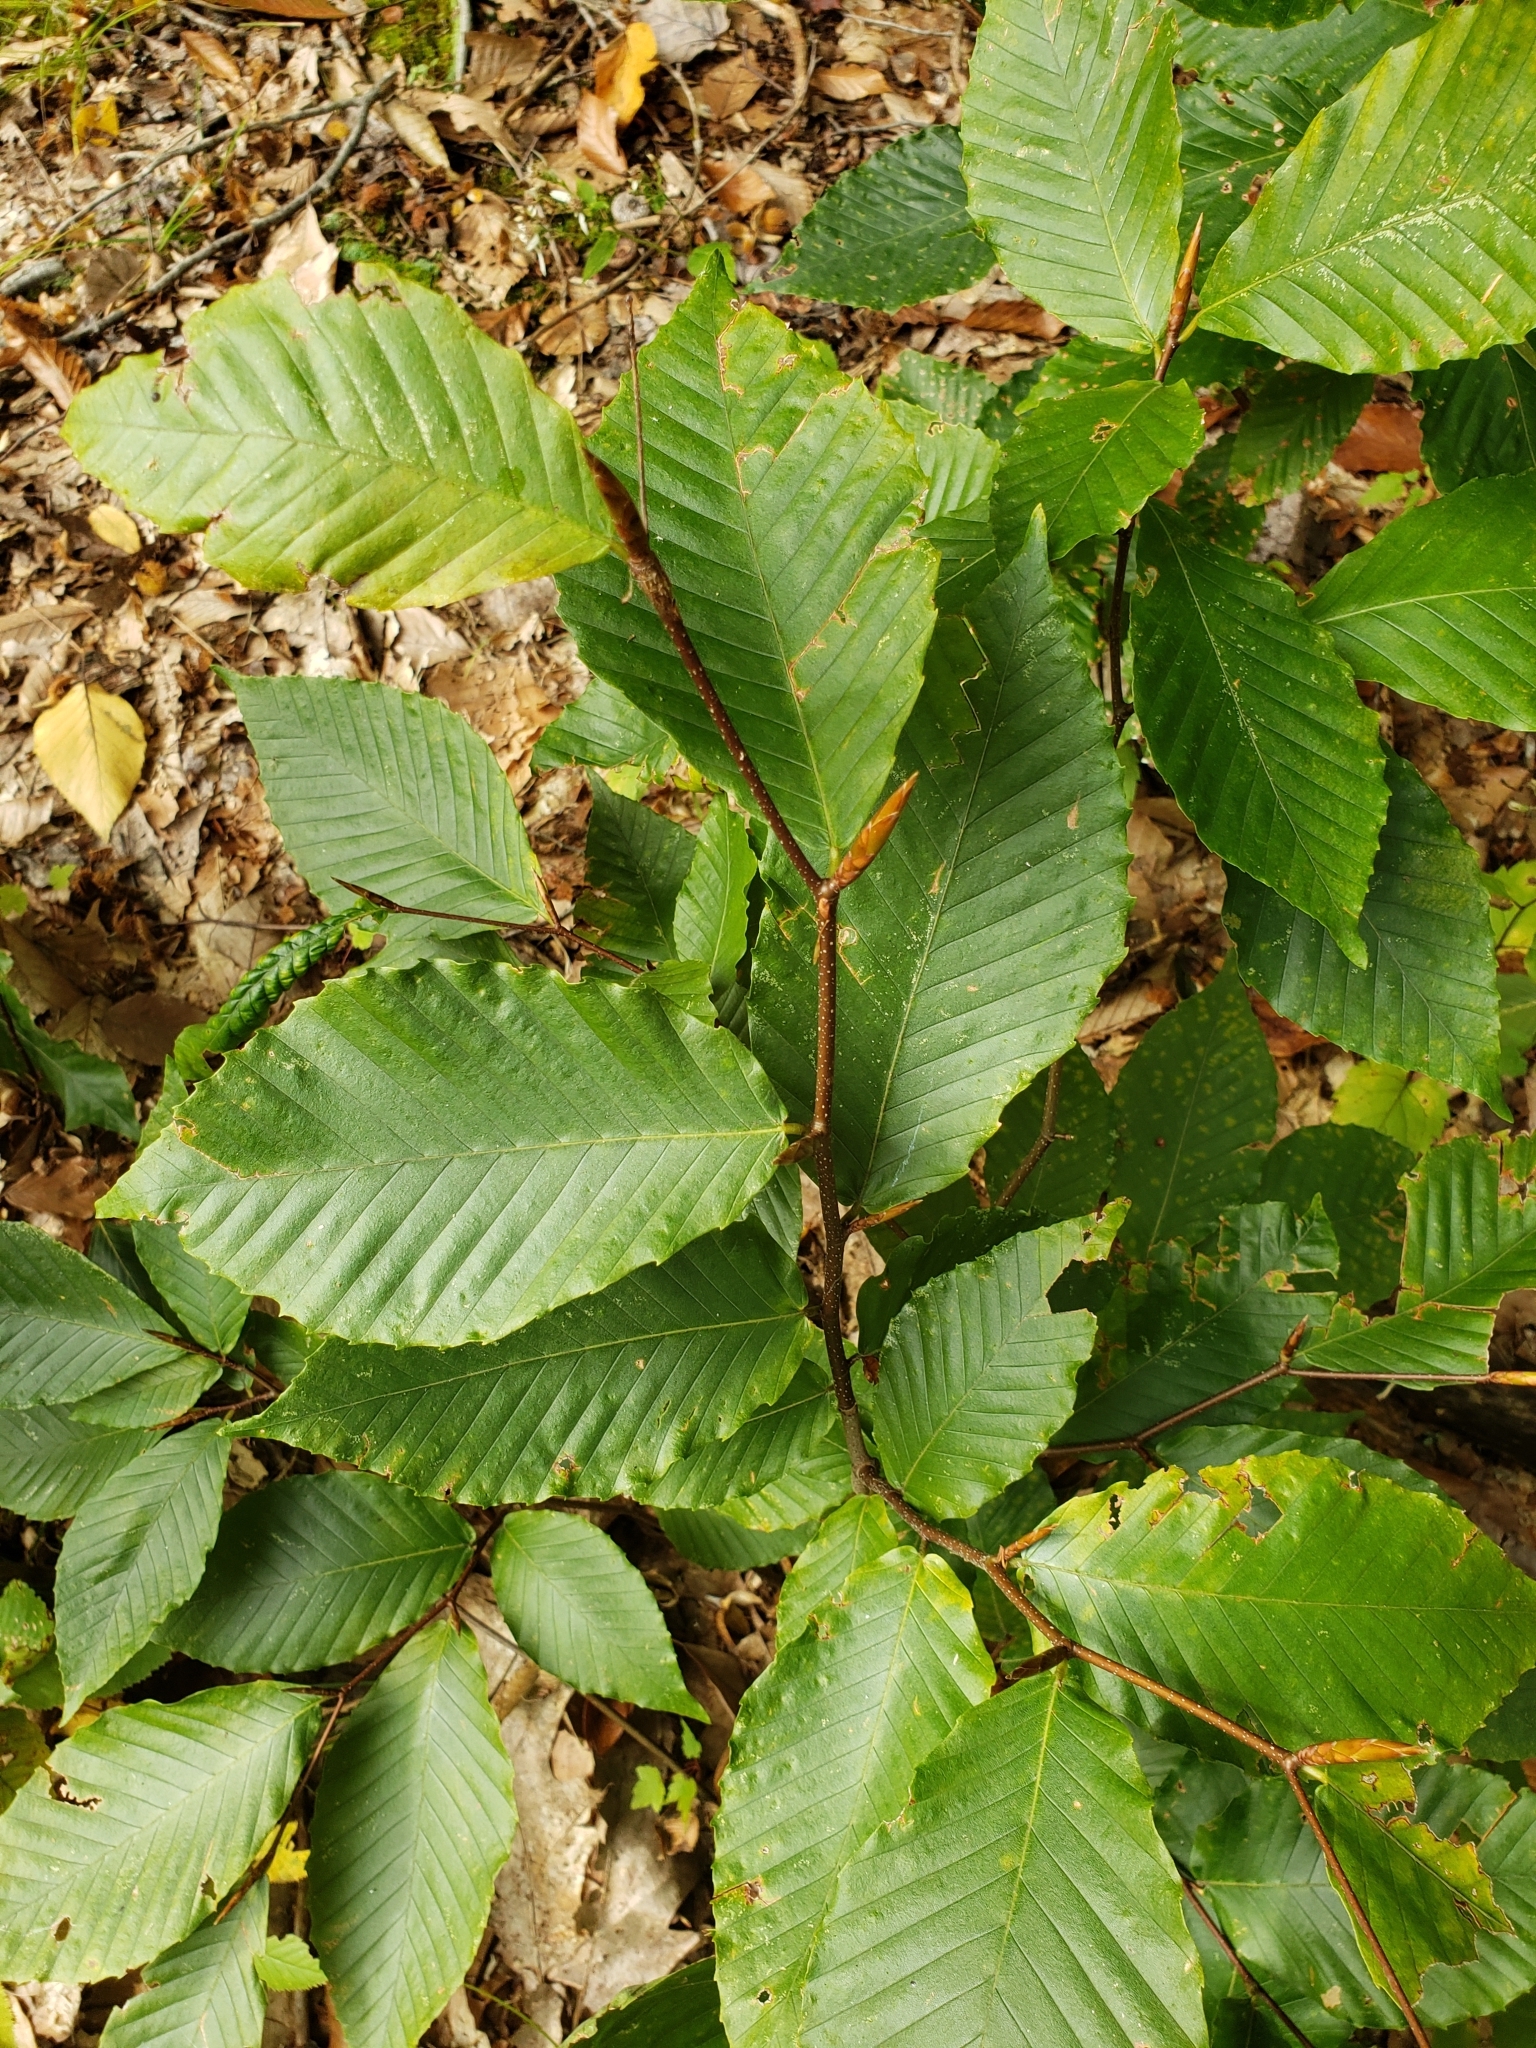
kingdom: Plantae
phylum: Tracheophyta
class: Magnoliopsida
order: Fagales
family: Fagaceae
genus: Fagus
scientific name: Fagus grandifolia
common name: American beech
